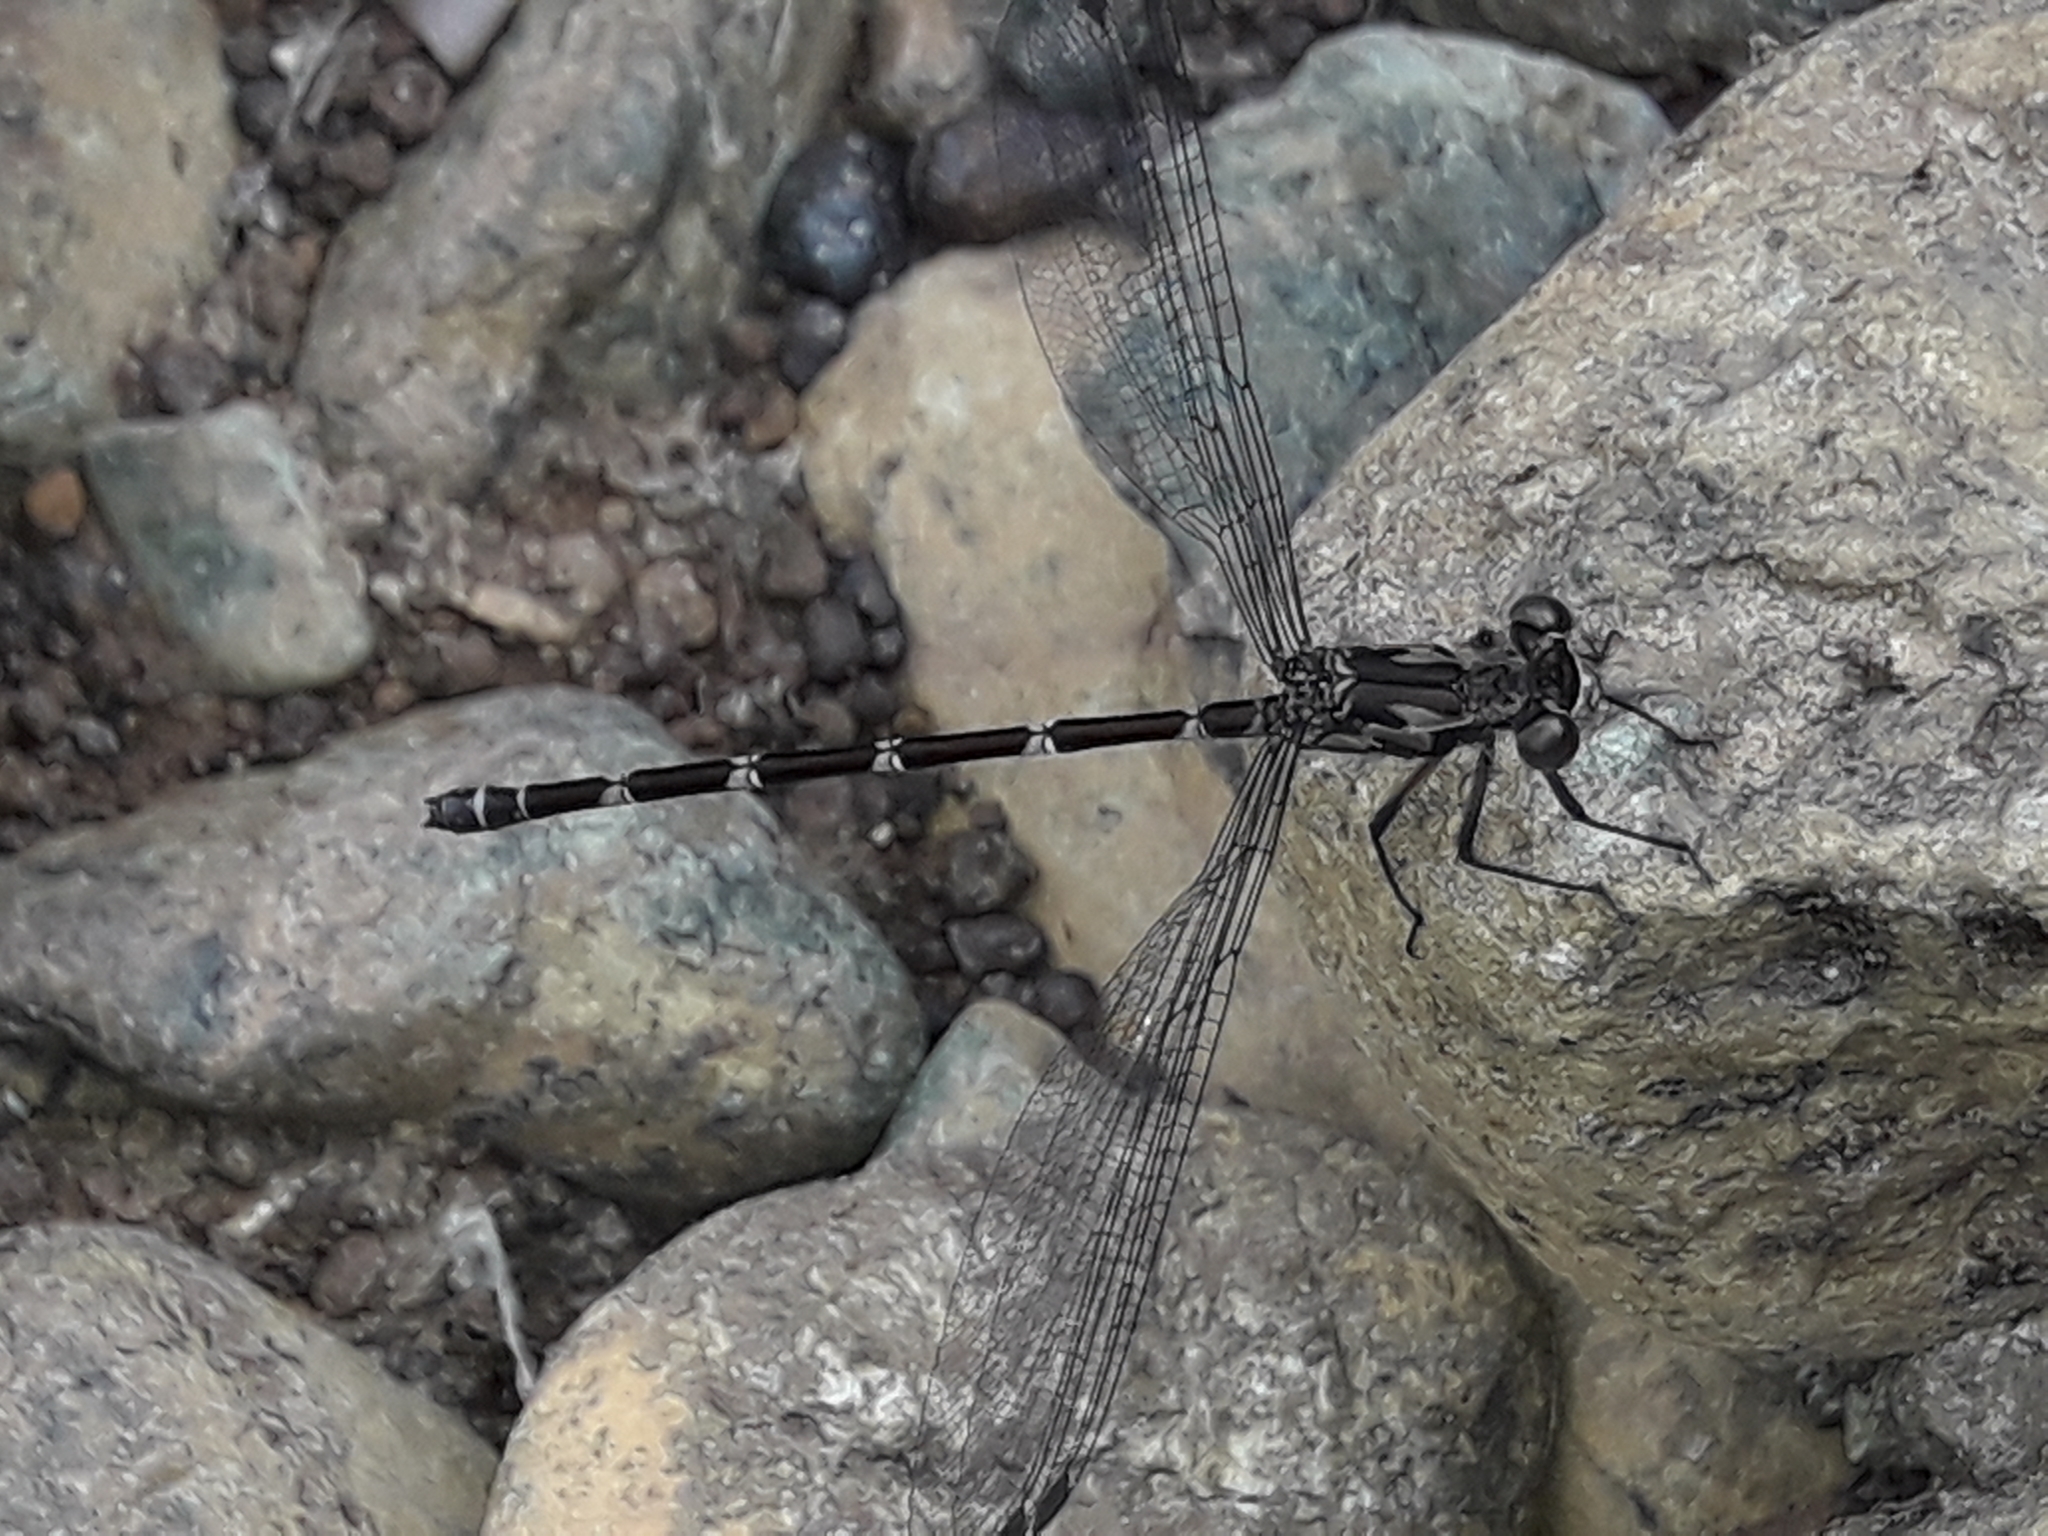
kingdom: Animalia
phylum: Arthropoda
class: Insecta
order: Odonata
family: Argiolestidae
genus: Caledopteryx
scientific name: Caledopteryx maculata
